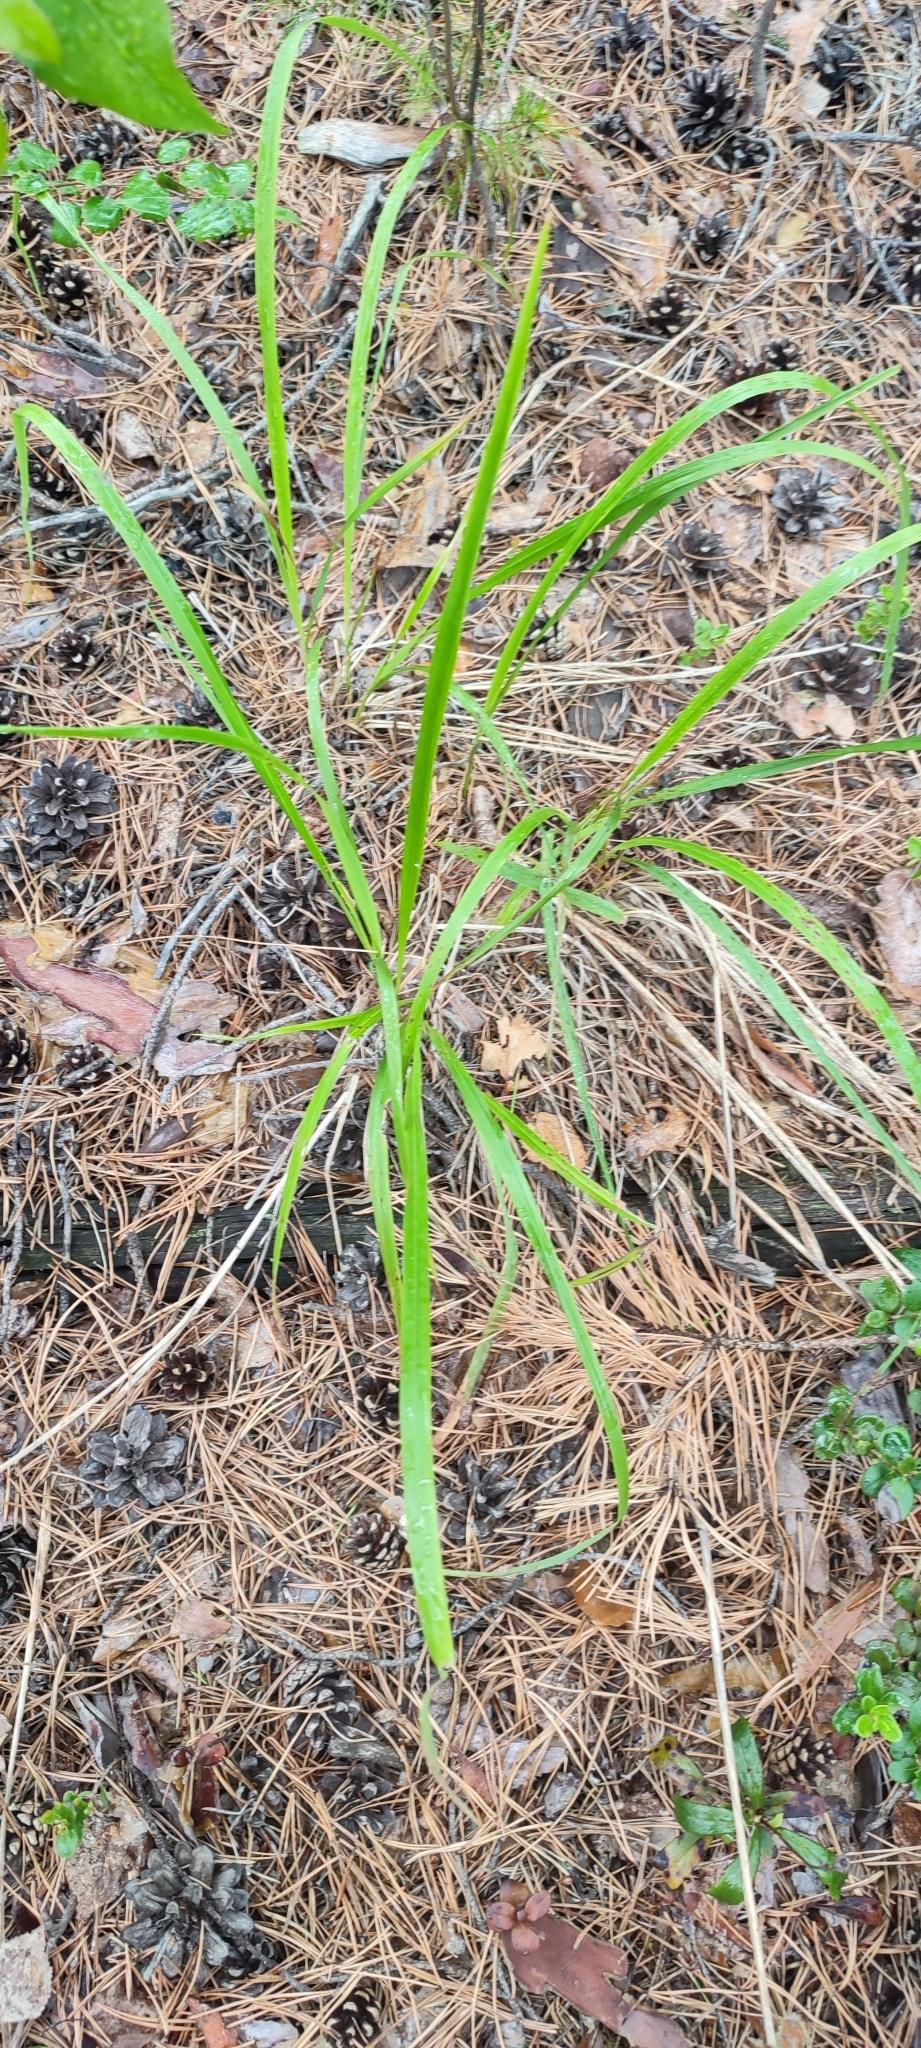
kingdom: Plantae
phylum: Tracheophyta
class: Liliopsida
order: Poales
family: Poaceae
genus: Calamagrostis
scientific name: Calamagrostis arundinacea
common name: Metskastik
